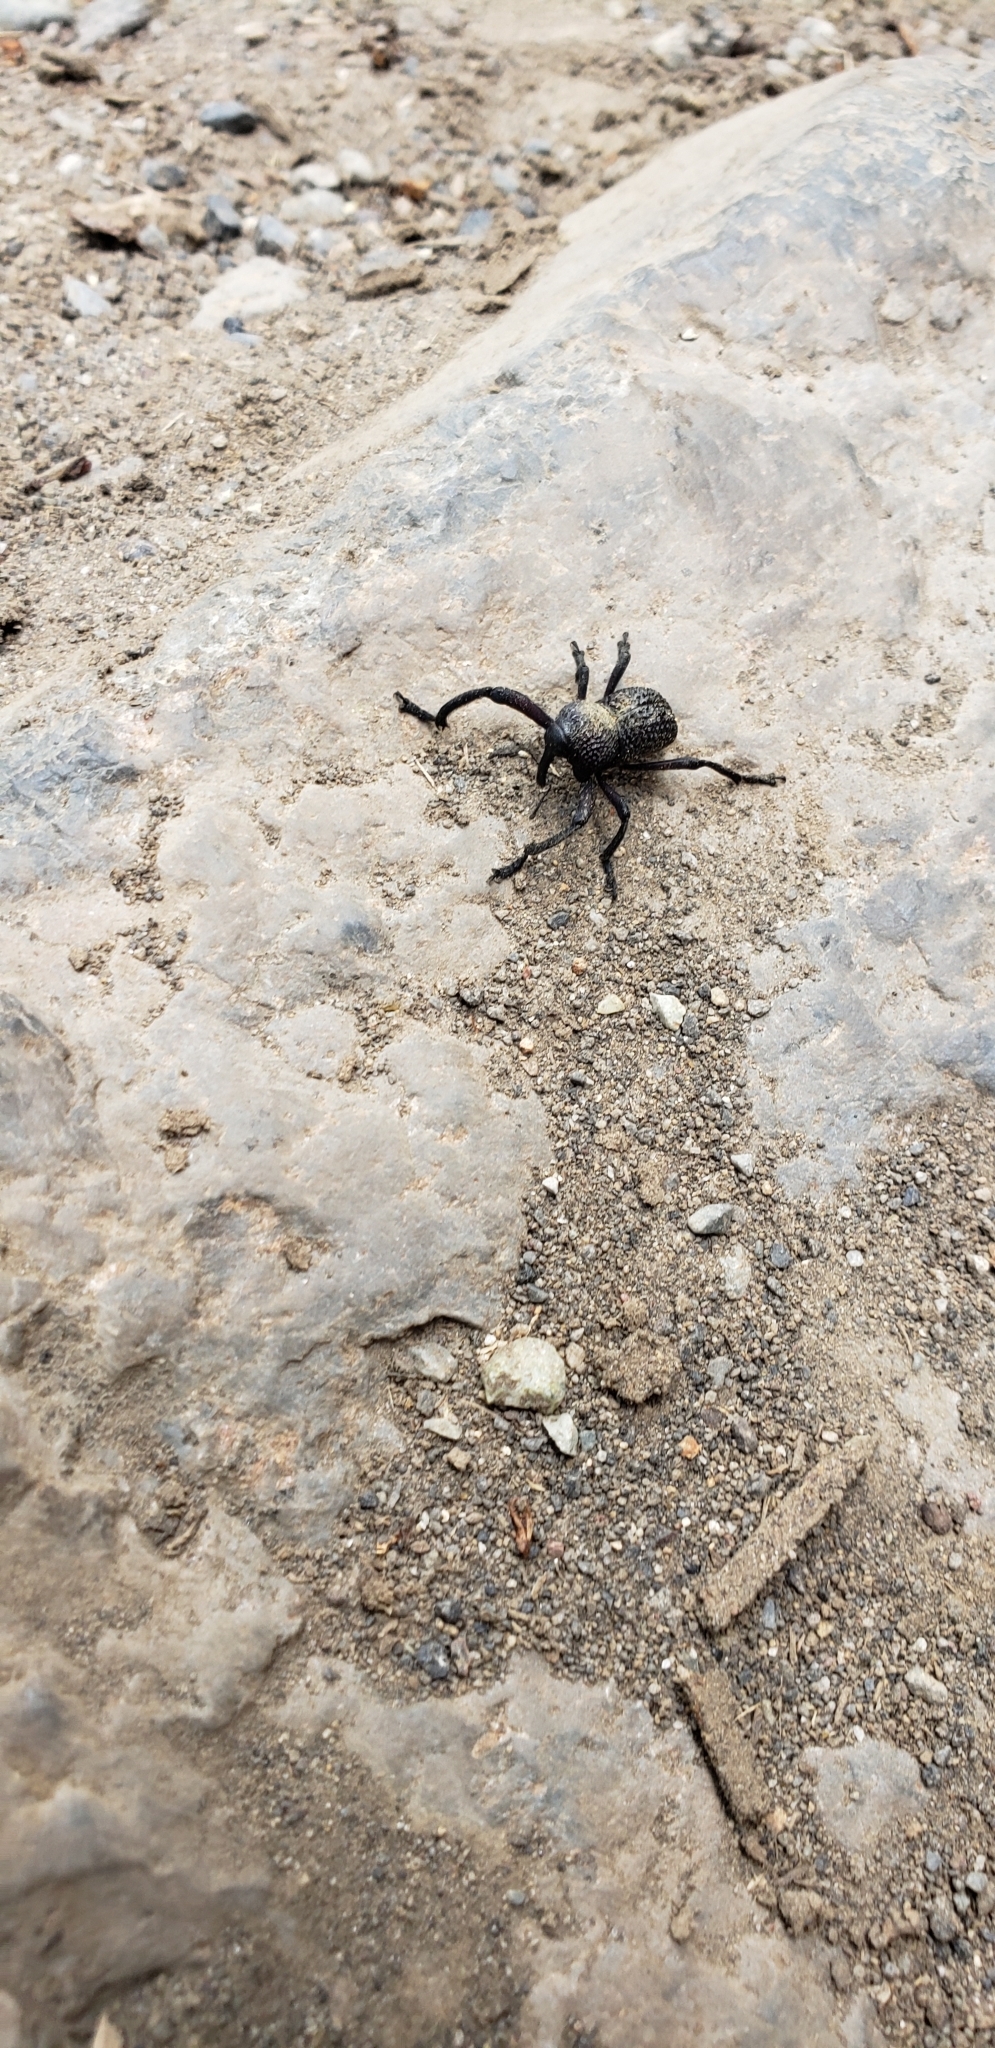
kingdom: Animalia
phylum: Arthropoda
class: Insecta
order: Coleoptera
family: Curculionidae
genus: Rhyephenes
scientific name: Rhyephenes maillei
